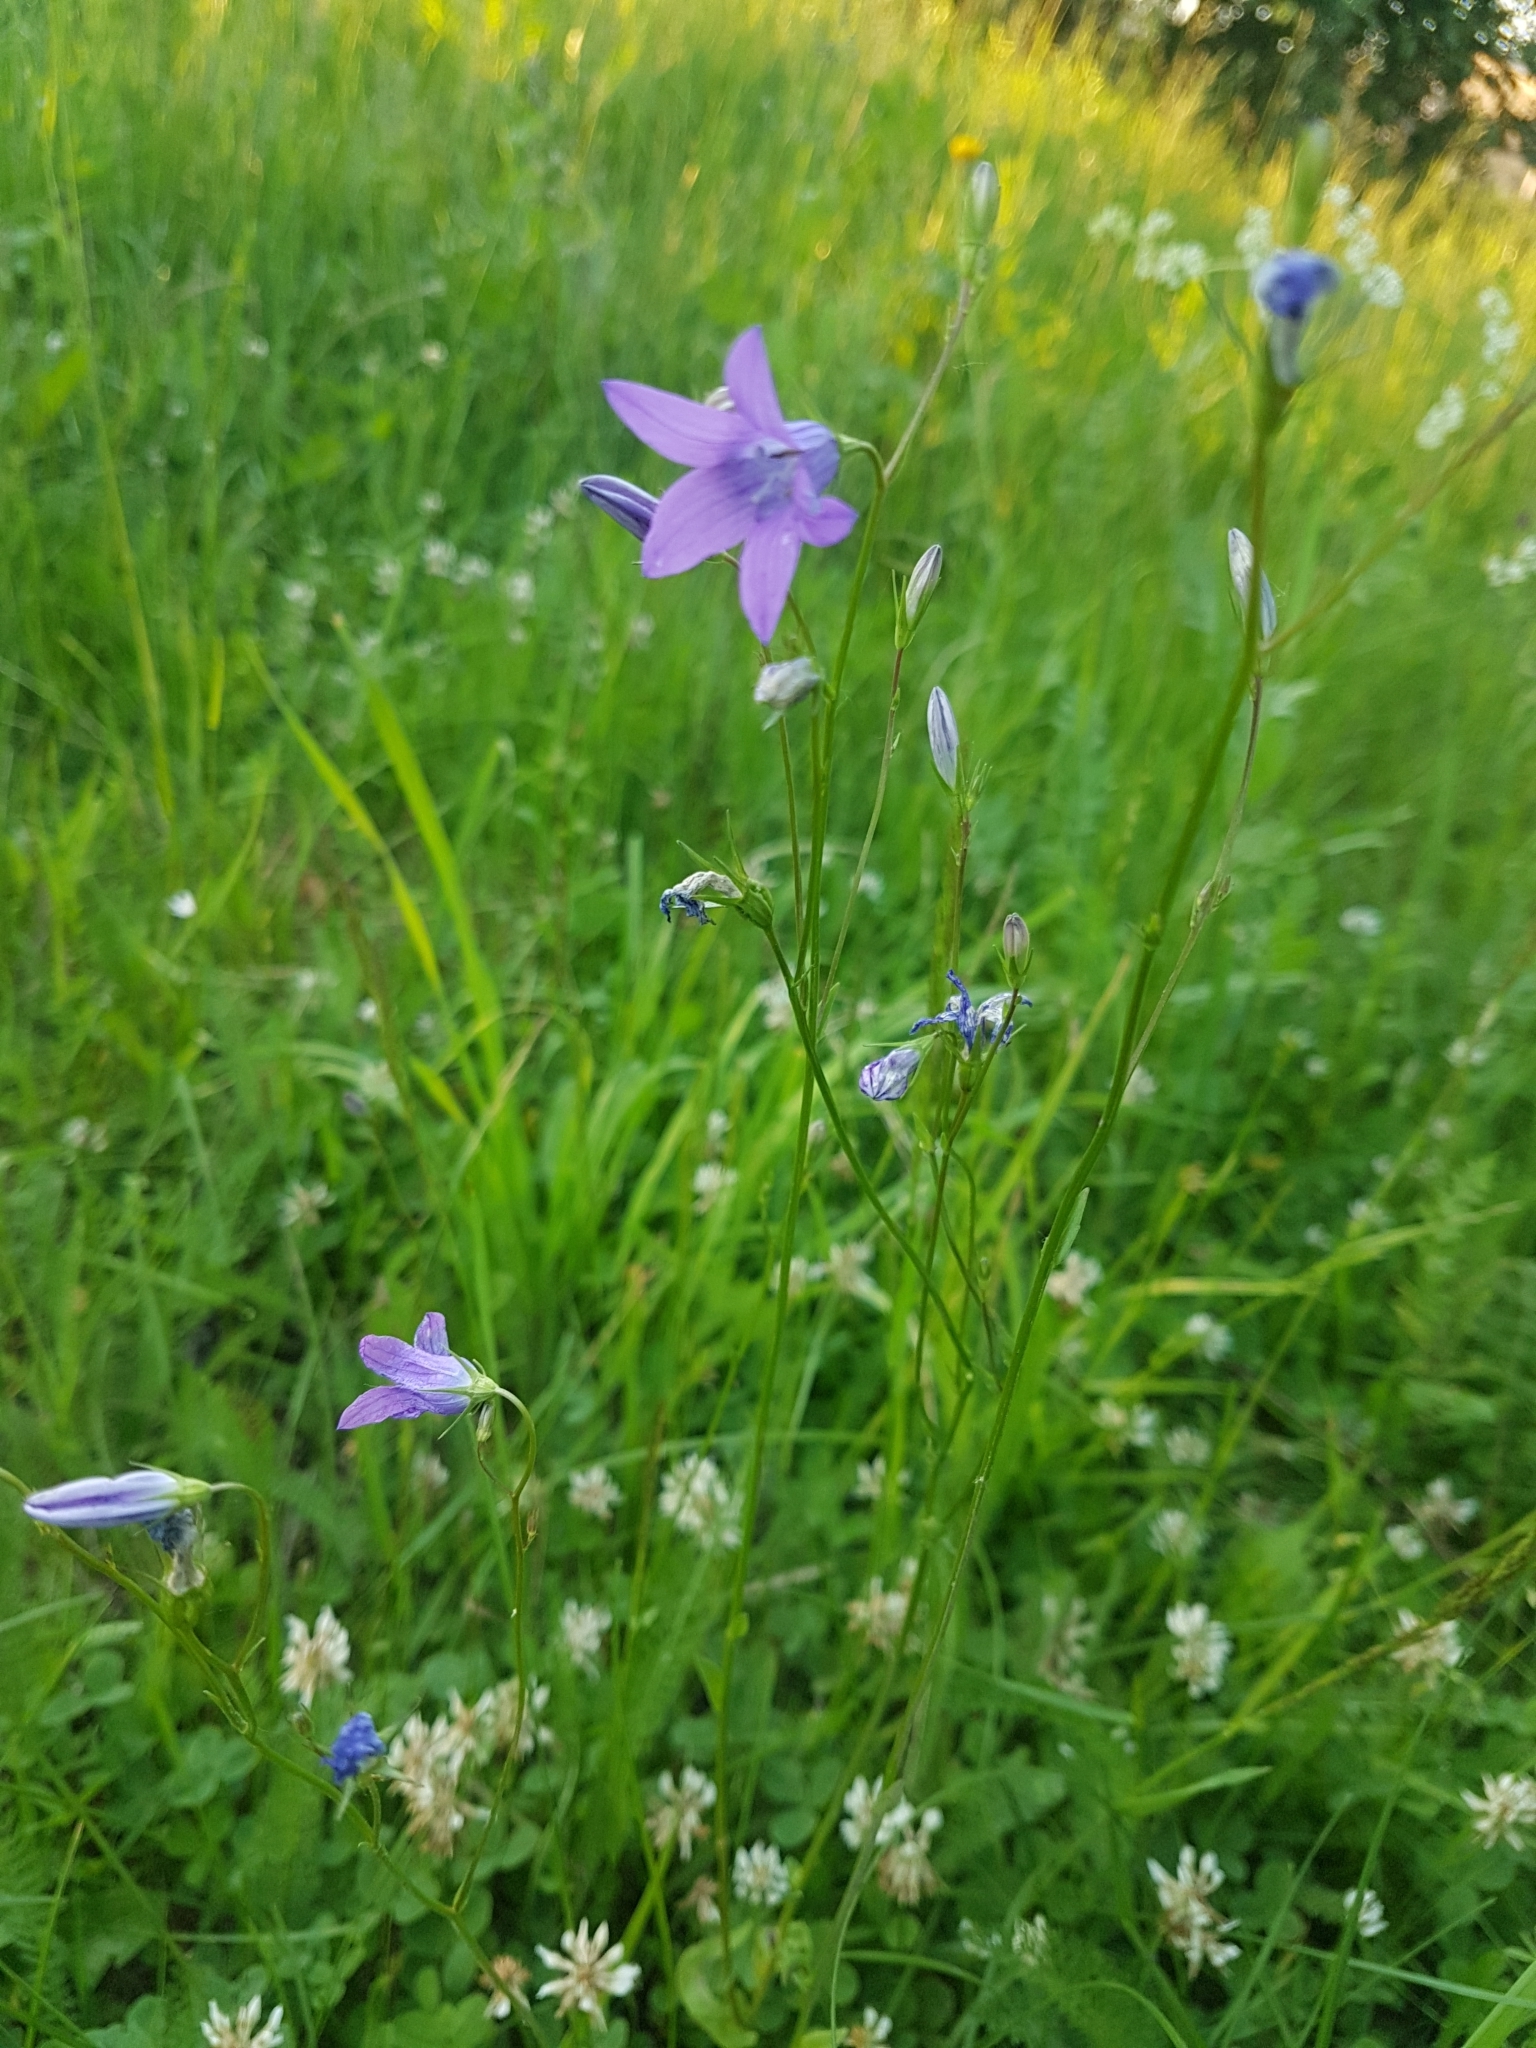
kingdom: Plantae
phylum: Tracheophyta
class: Magnoliopsida
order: Asterales
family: Campanulaceae
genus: Campanula
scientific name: Campanula patula
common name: Spreading bellflower
